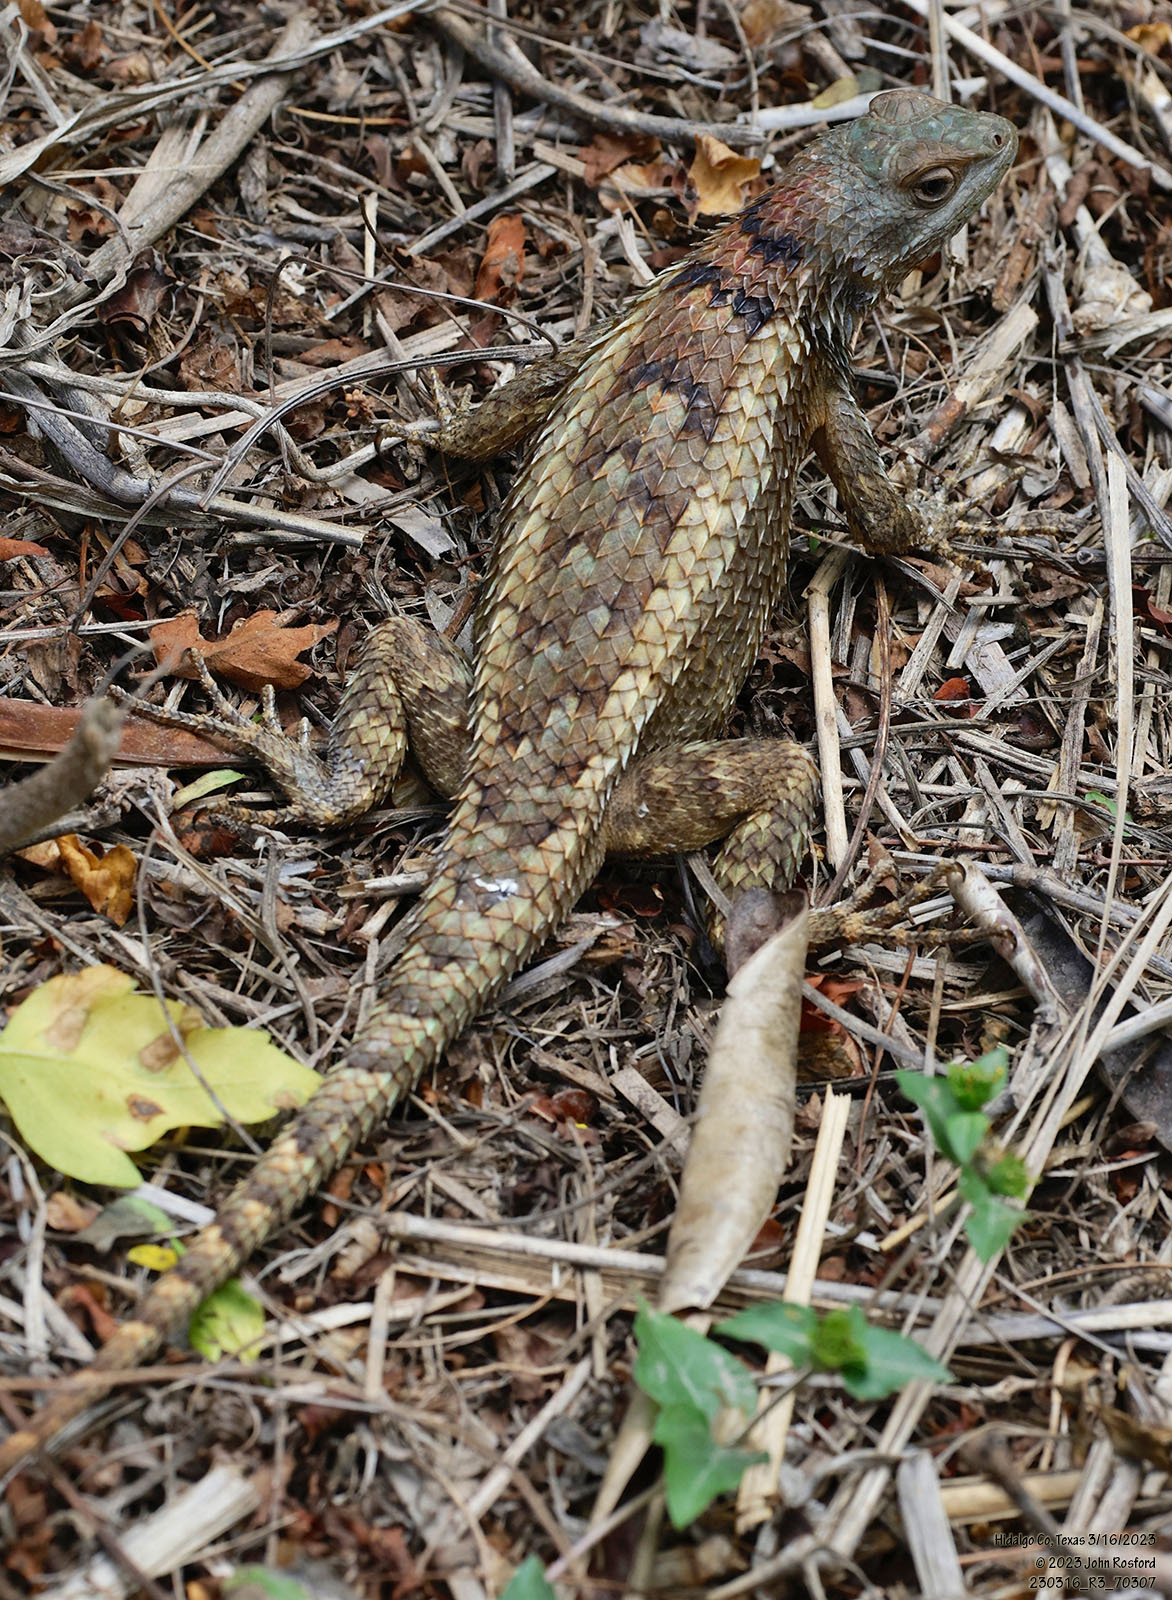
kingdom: Animalia
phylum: Chordata
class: Squamata
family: Phrynosomatidae
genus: Sceloporus
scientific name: Sceloporus olivaceus
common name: Texas spiny lizard
